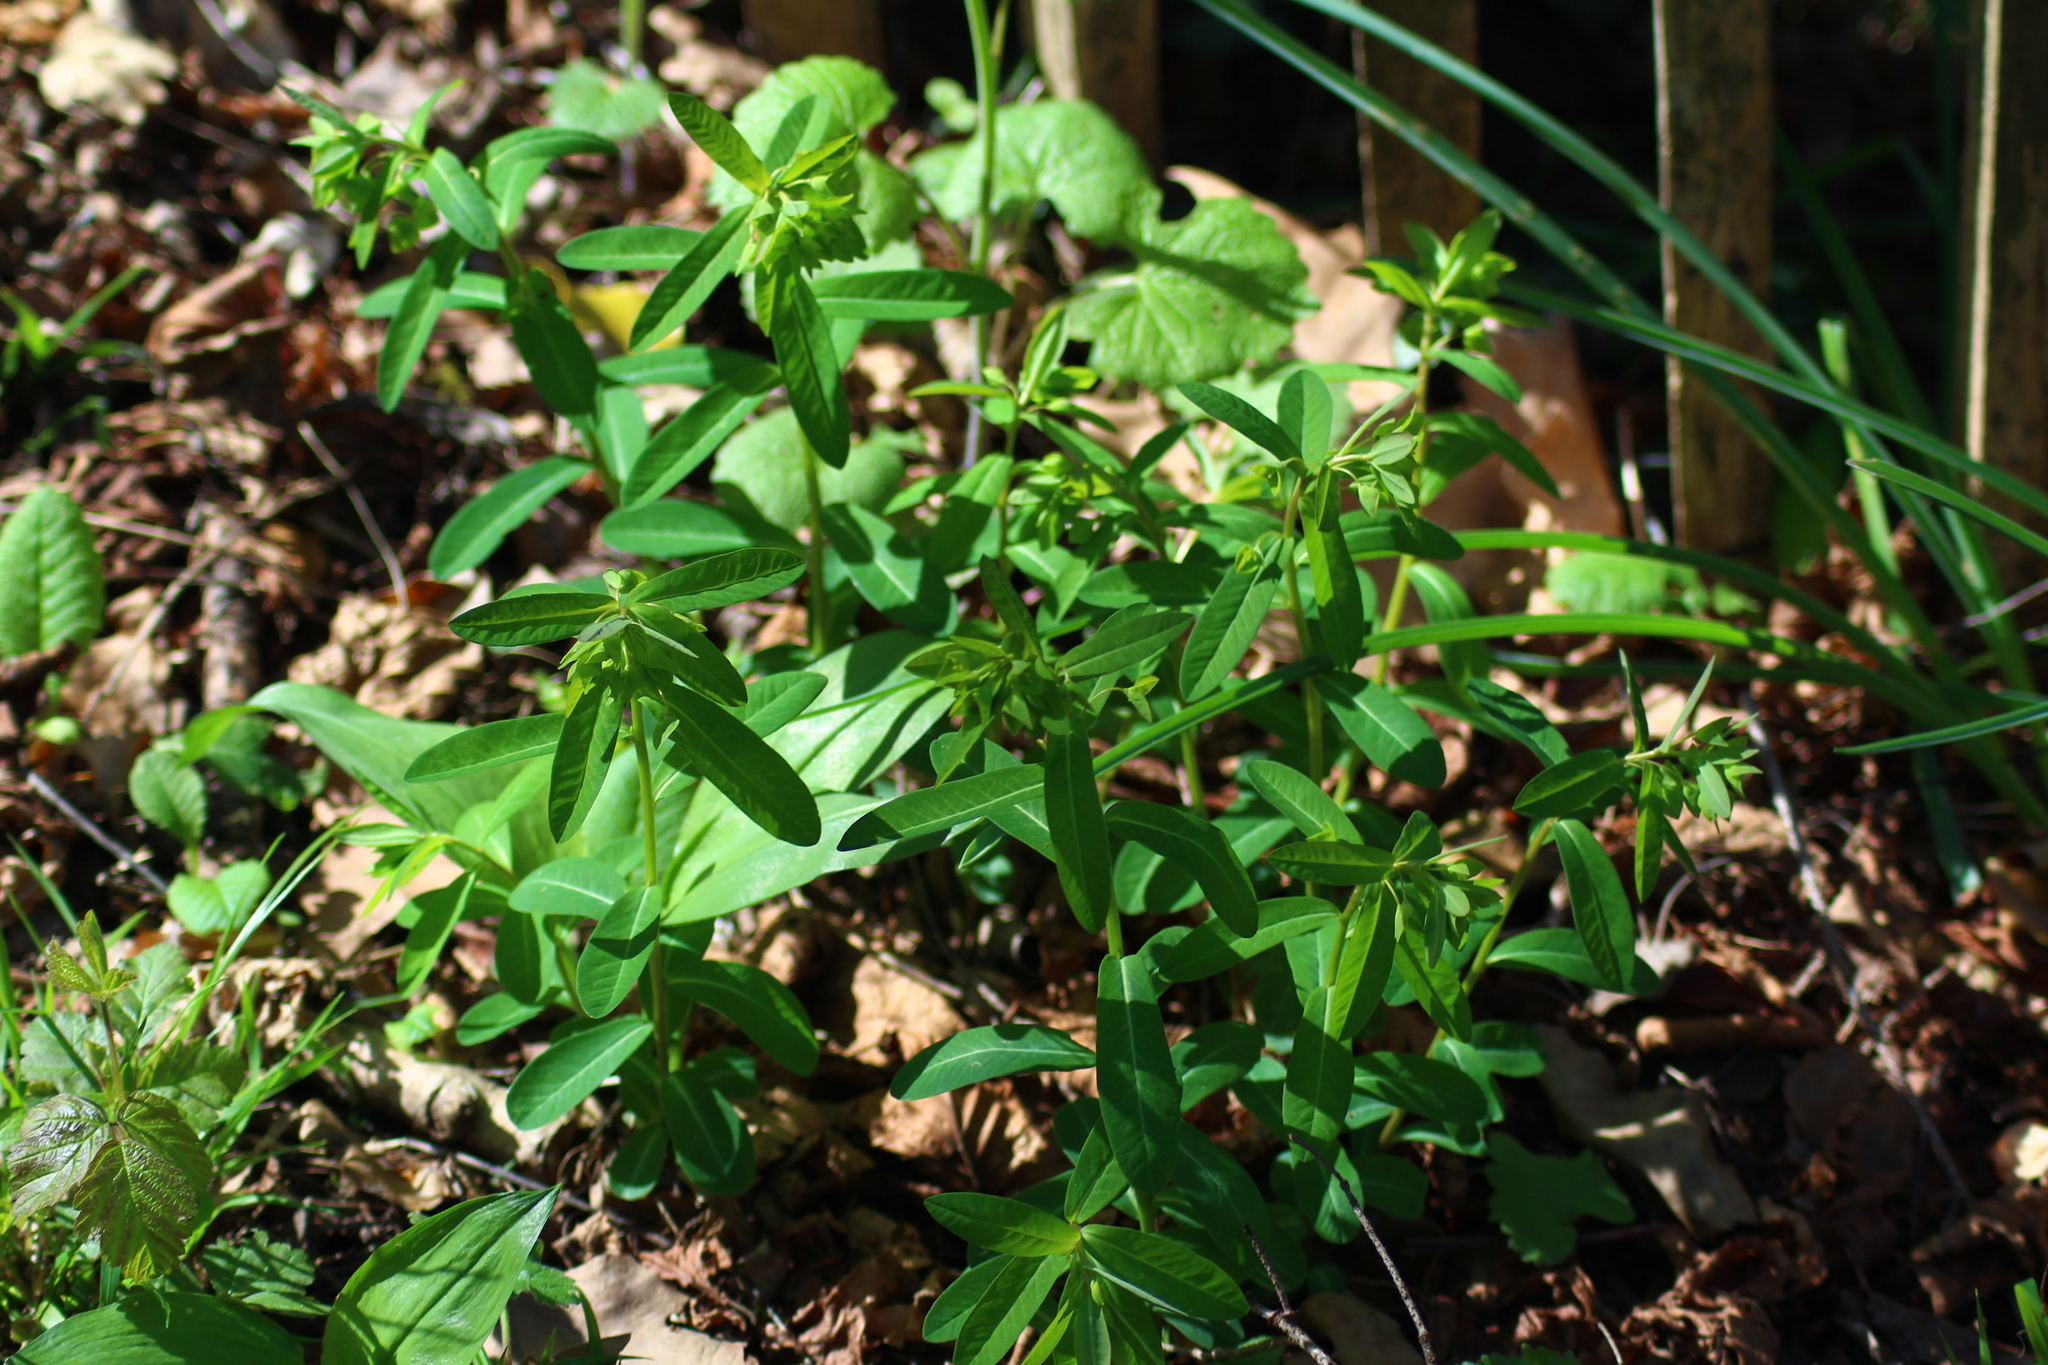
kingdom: Plantae
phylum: Tracheophyta
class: Magnoliopsida
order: Malpighiales
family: Euphorbiaceae
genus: Euphorbia
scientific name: Euphorbia dulcis
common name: Sweet spurge
